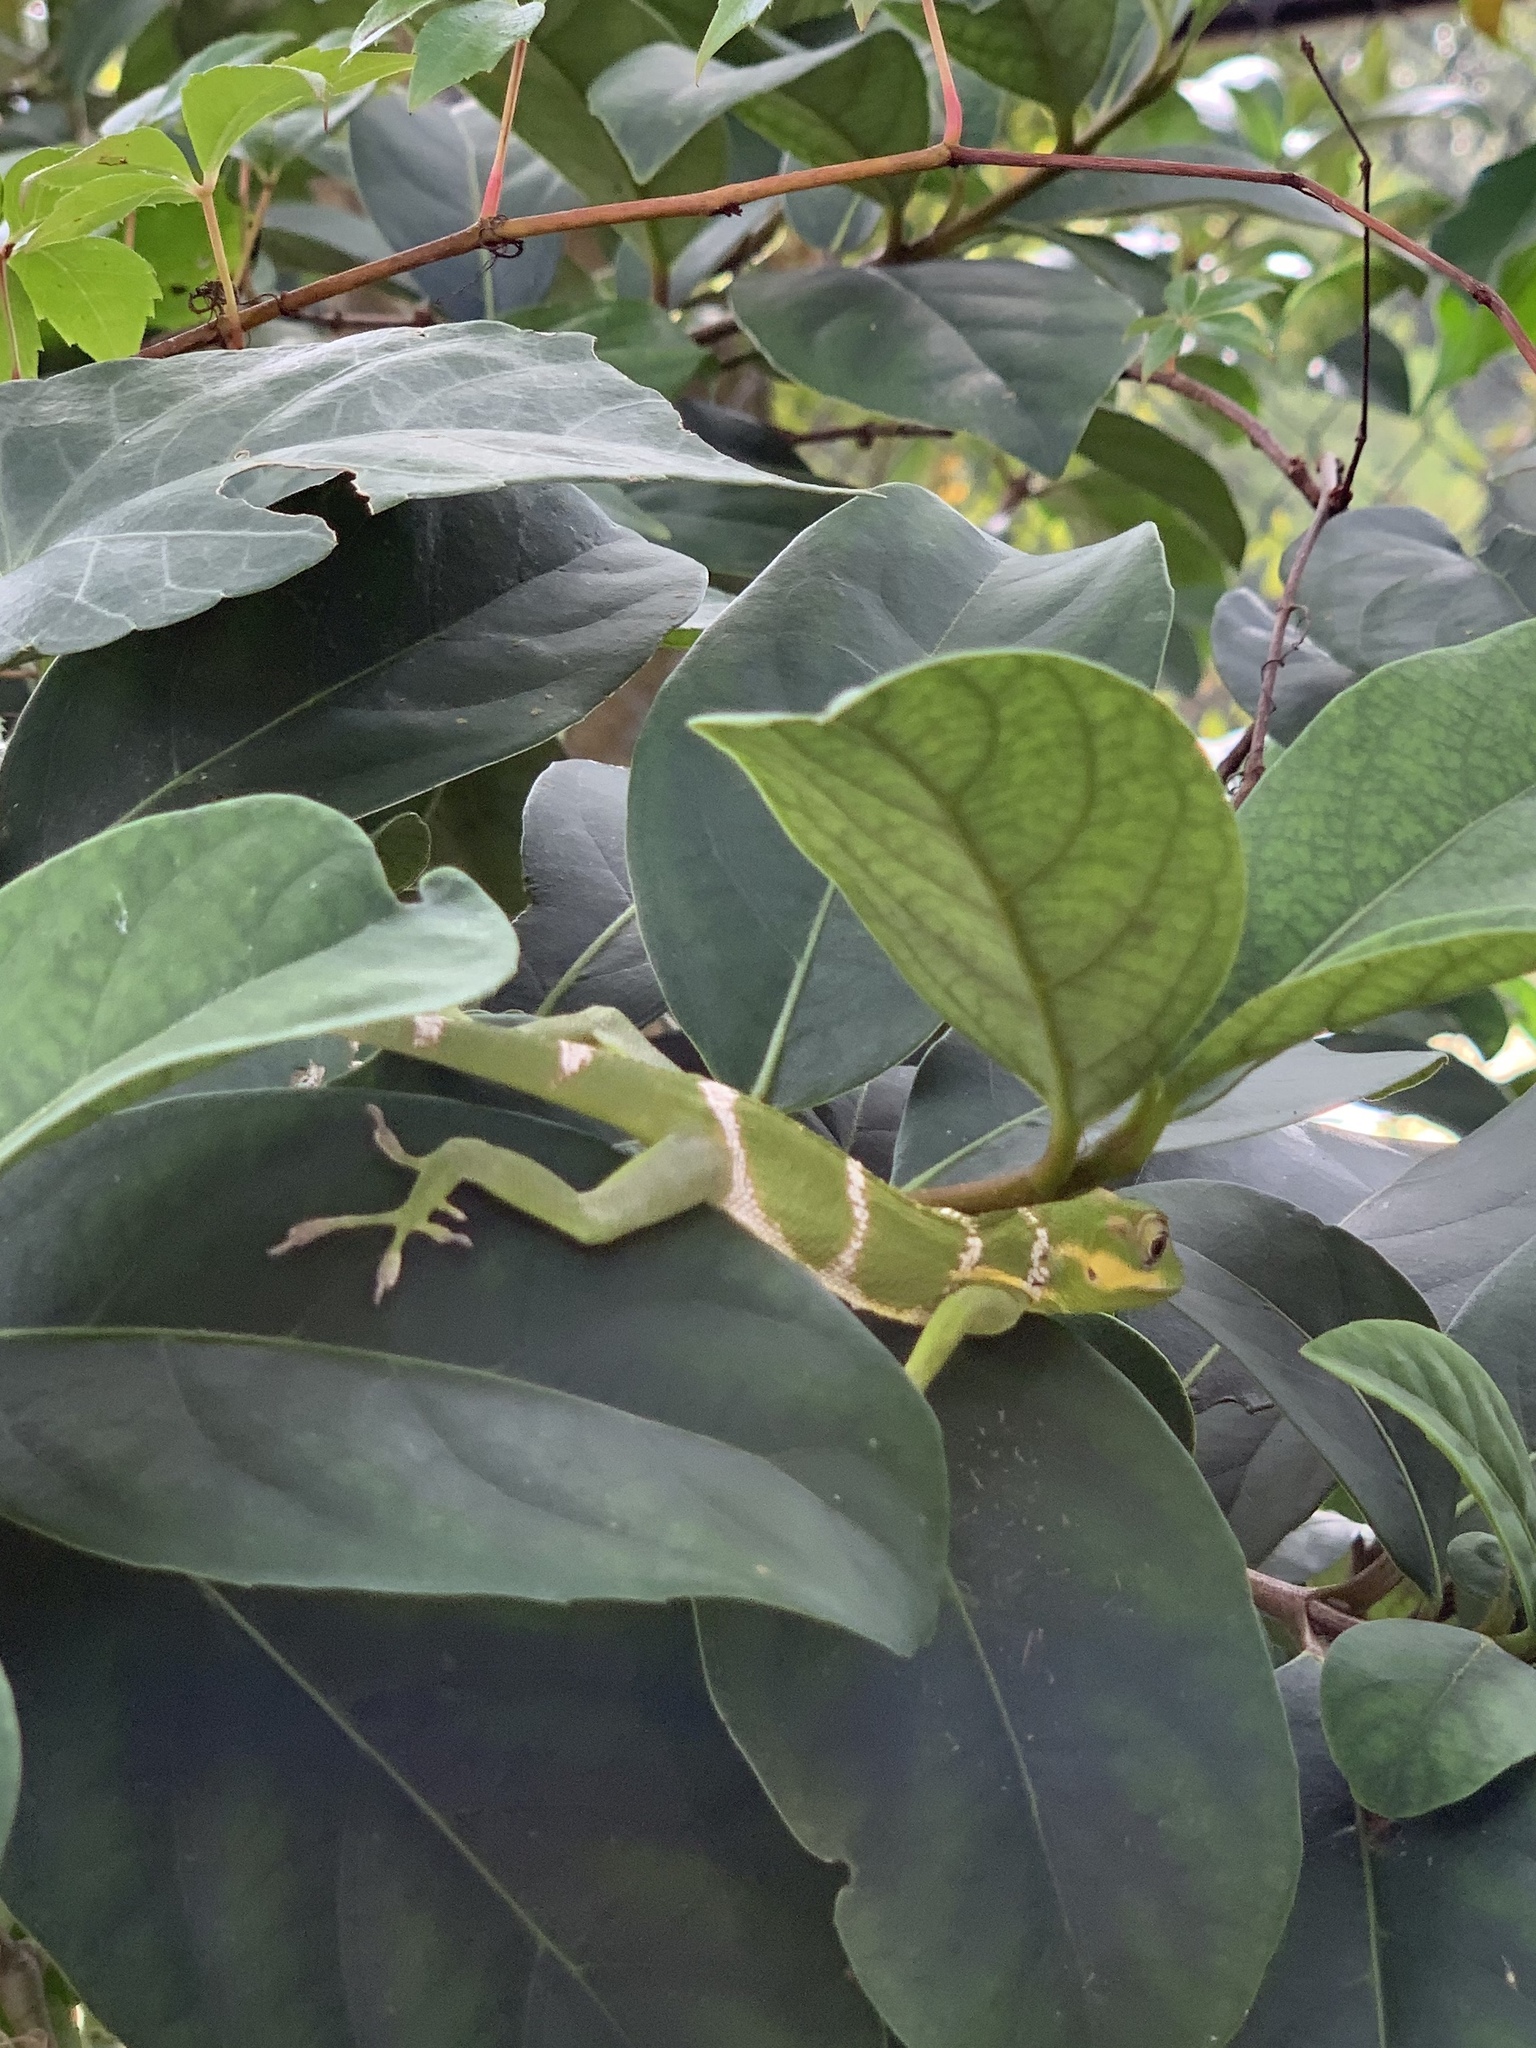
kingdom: Animalia
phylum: Chordata
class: Squamata
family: Dactyloidae
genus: Anolis
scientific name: Anolis equestris
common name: Knight anole
